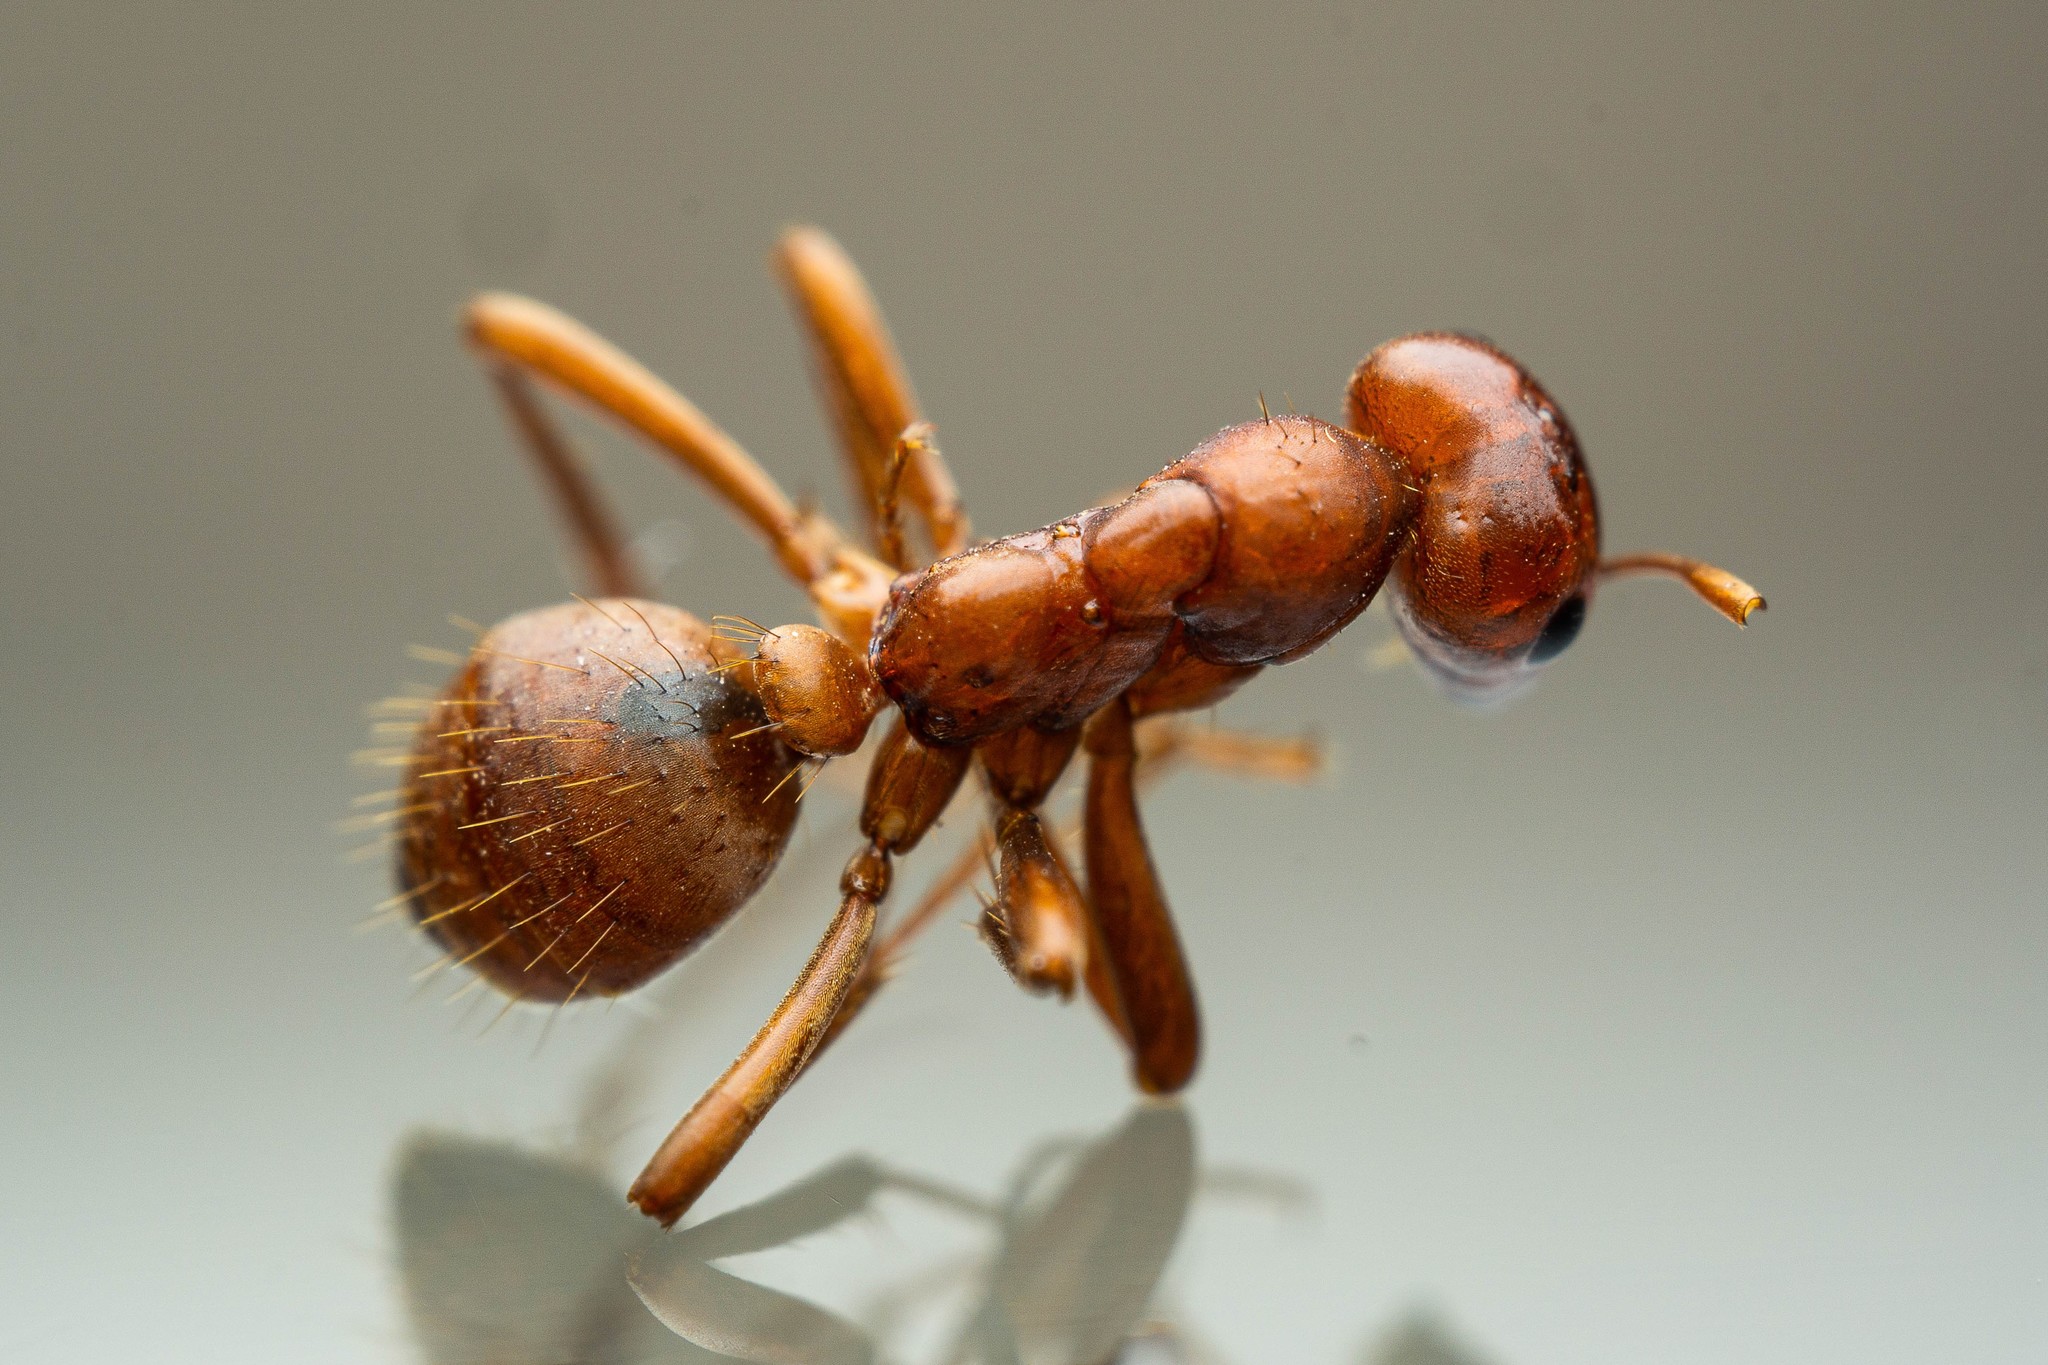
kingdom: Animalia
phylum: Arthropoda
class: Insecta
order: Hymenoptera
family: Formicidae
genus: Polyergus
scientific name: Polyergus topoffi
